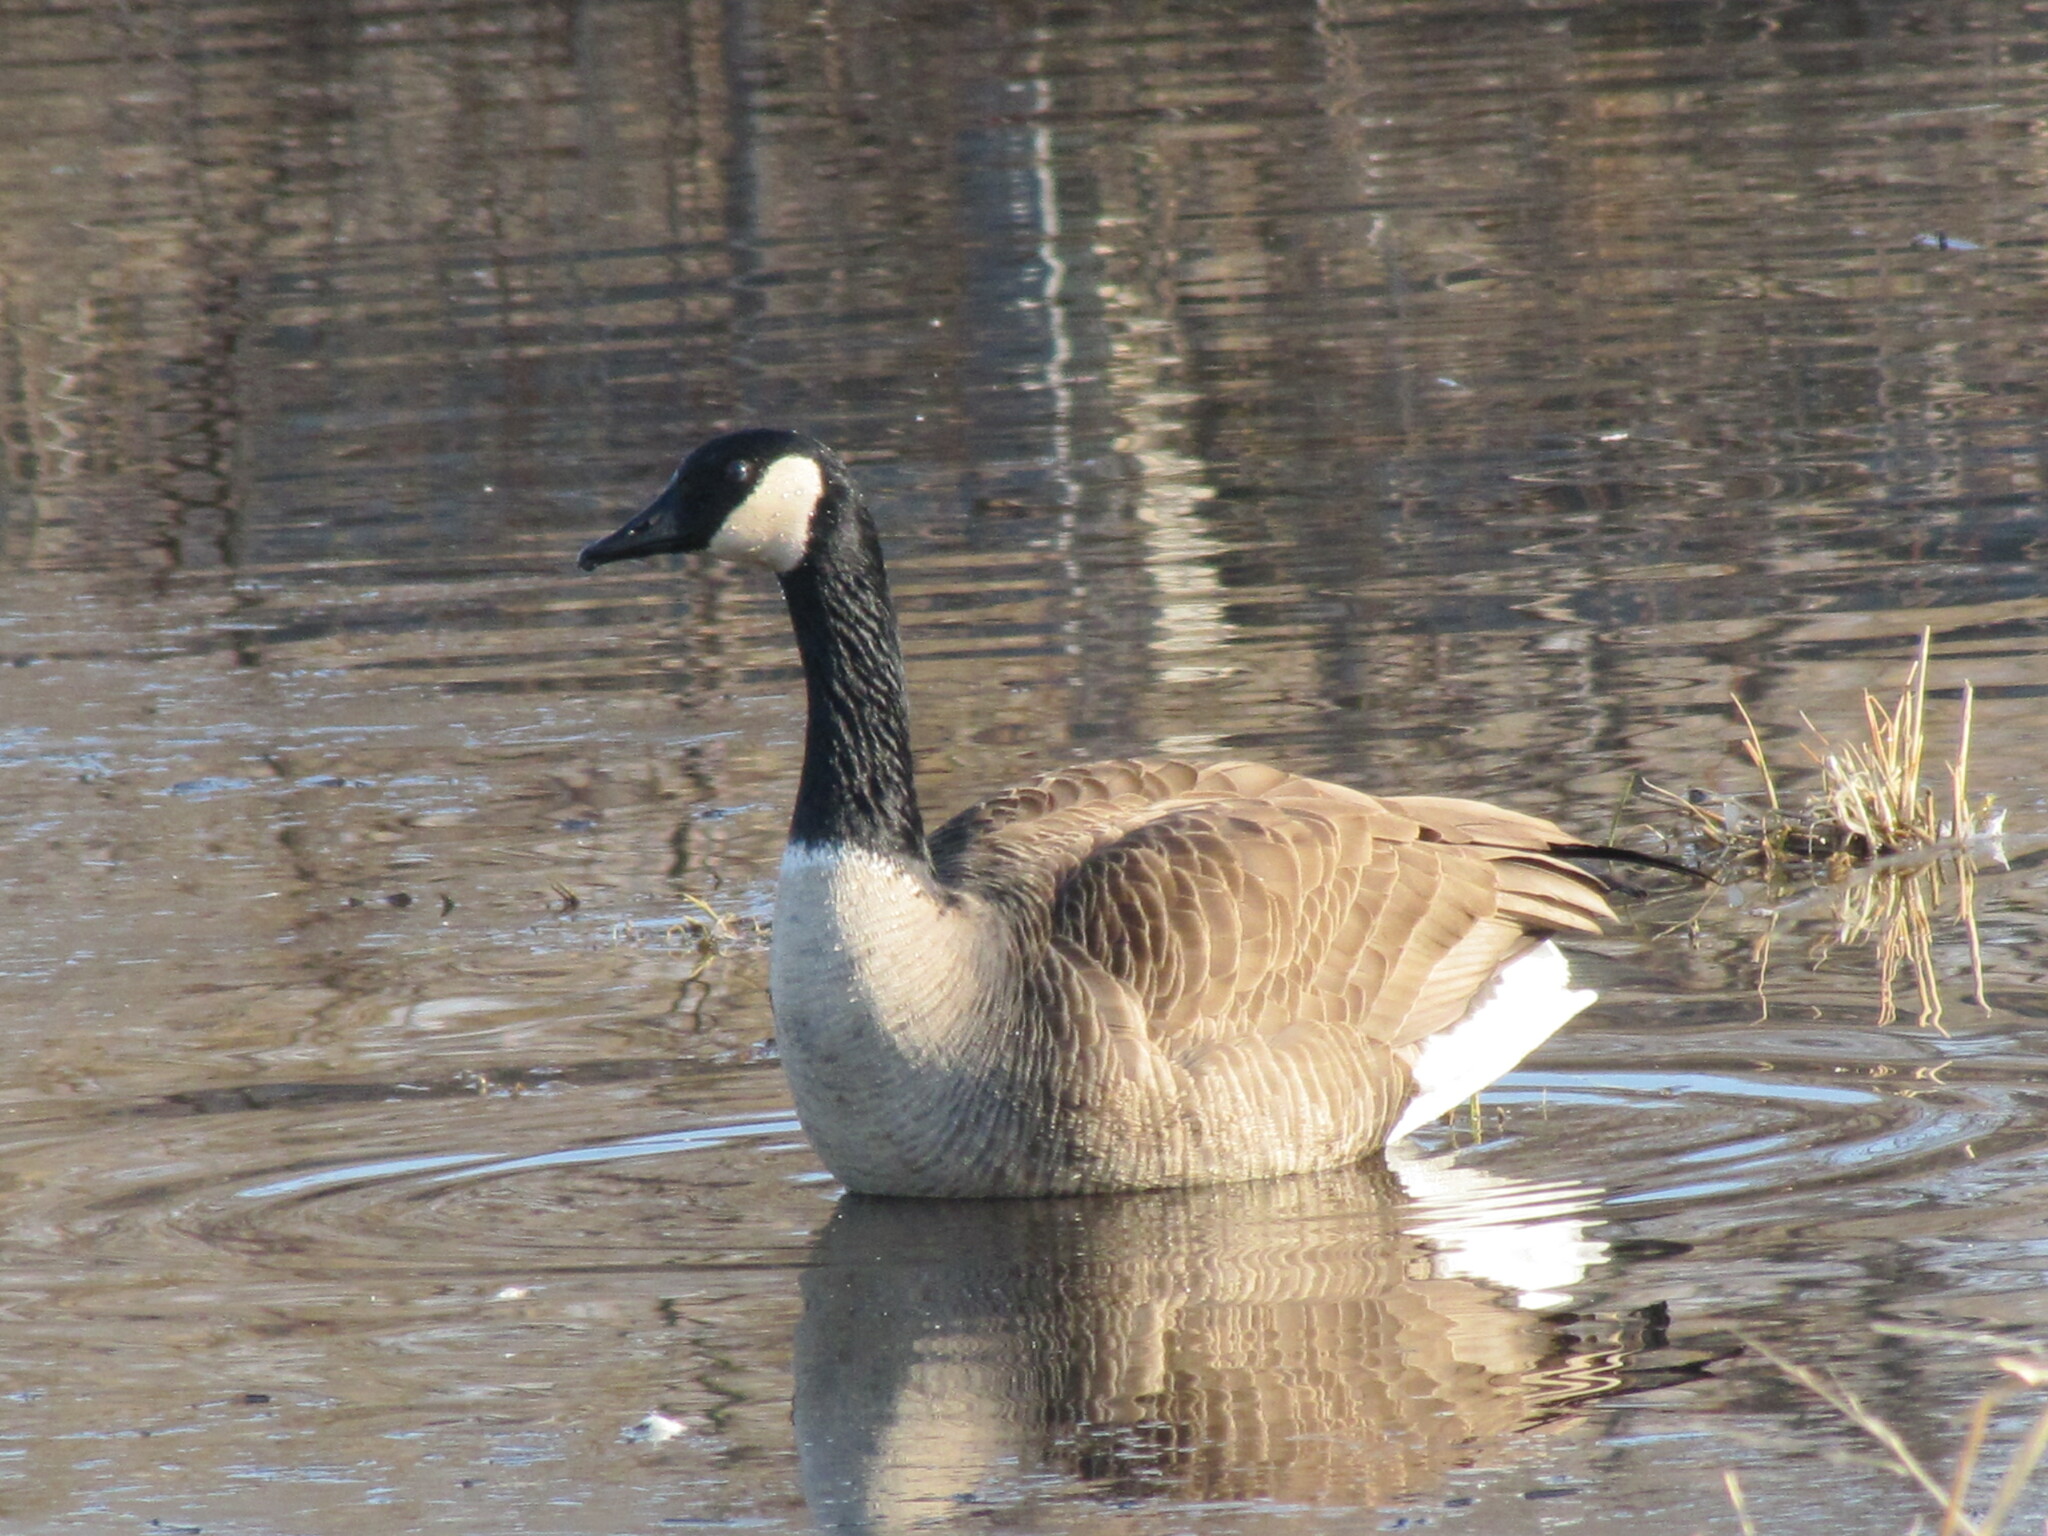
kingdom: Animalia
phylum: Chordata
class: Aves
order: Anseriformes
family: Anatidae
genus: Branta
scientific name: Branta canadensis
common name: Canada goose
